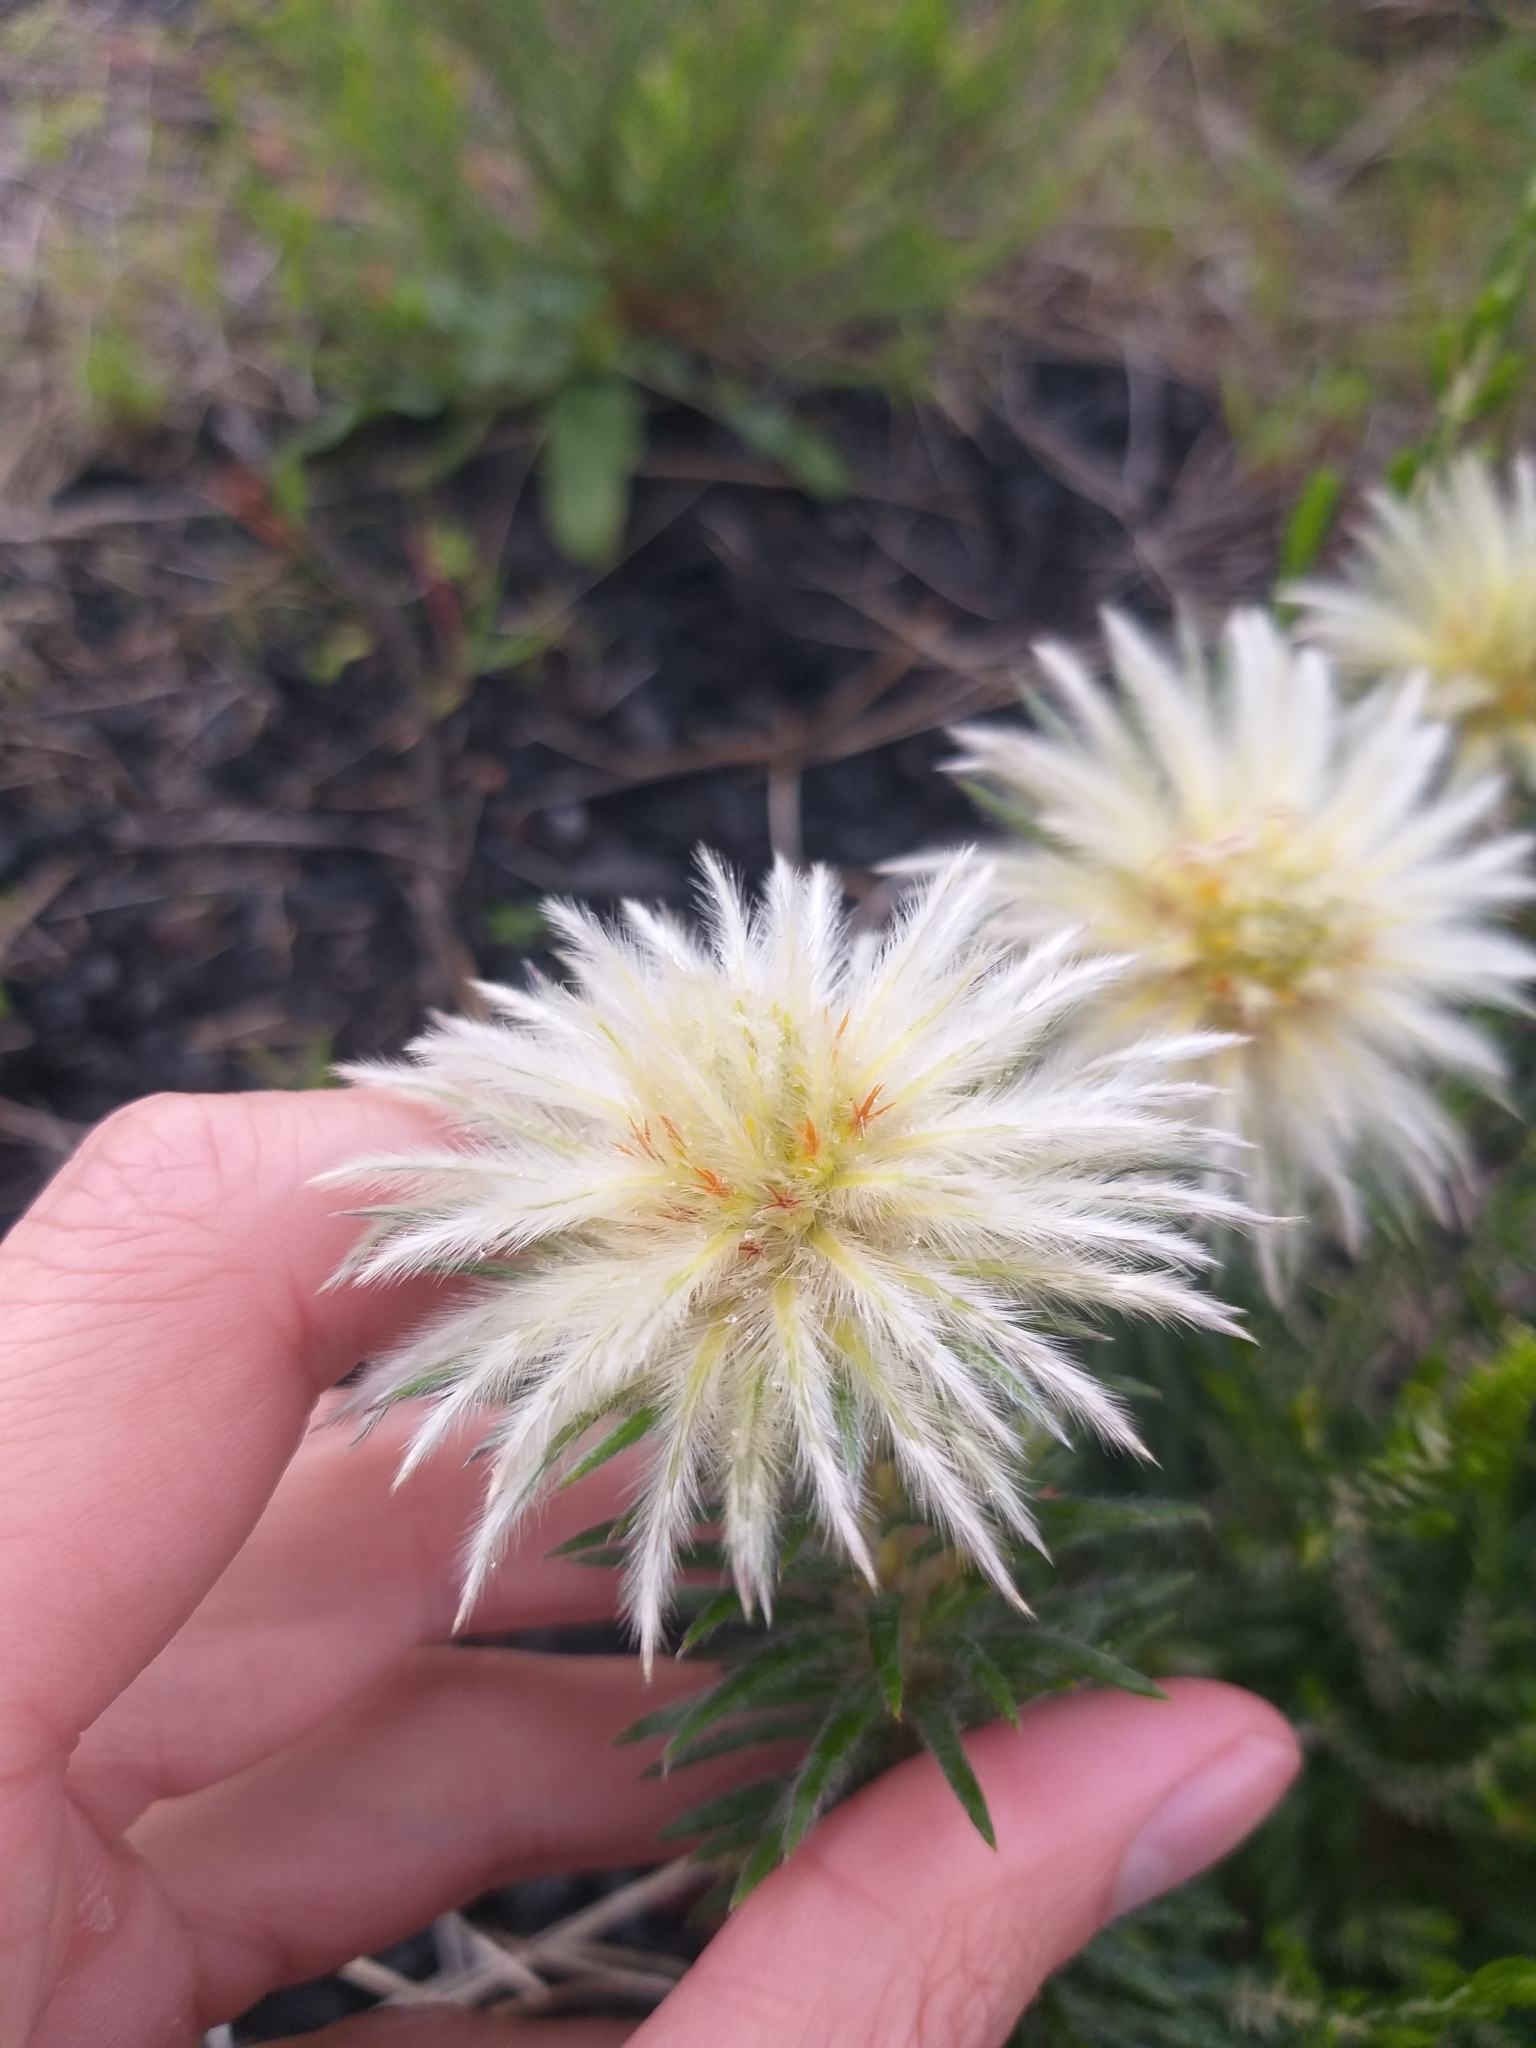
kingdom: Plantae
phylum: Tracheophyta
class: Magnoliopsida
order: Rosales
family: Rhamnaceae
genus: Phylica
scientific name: Phylica pubescens
